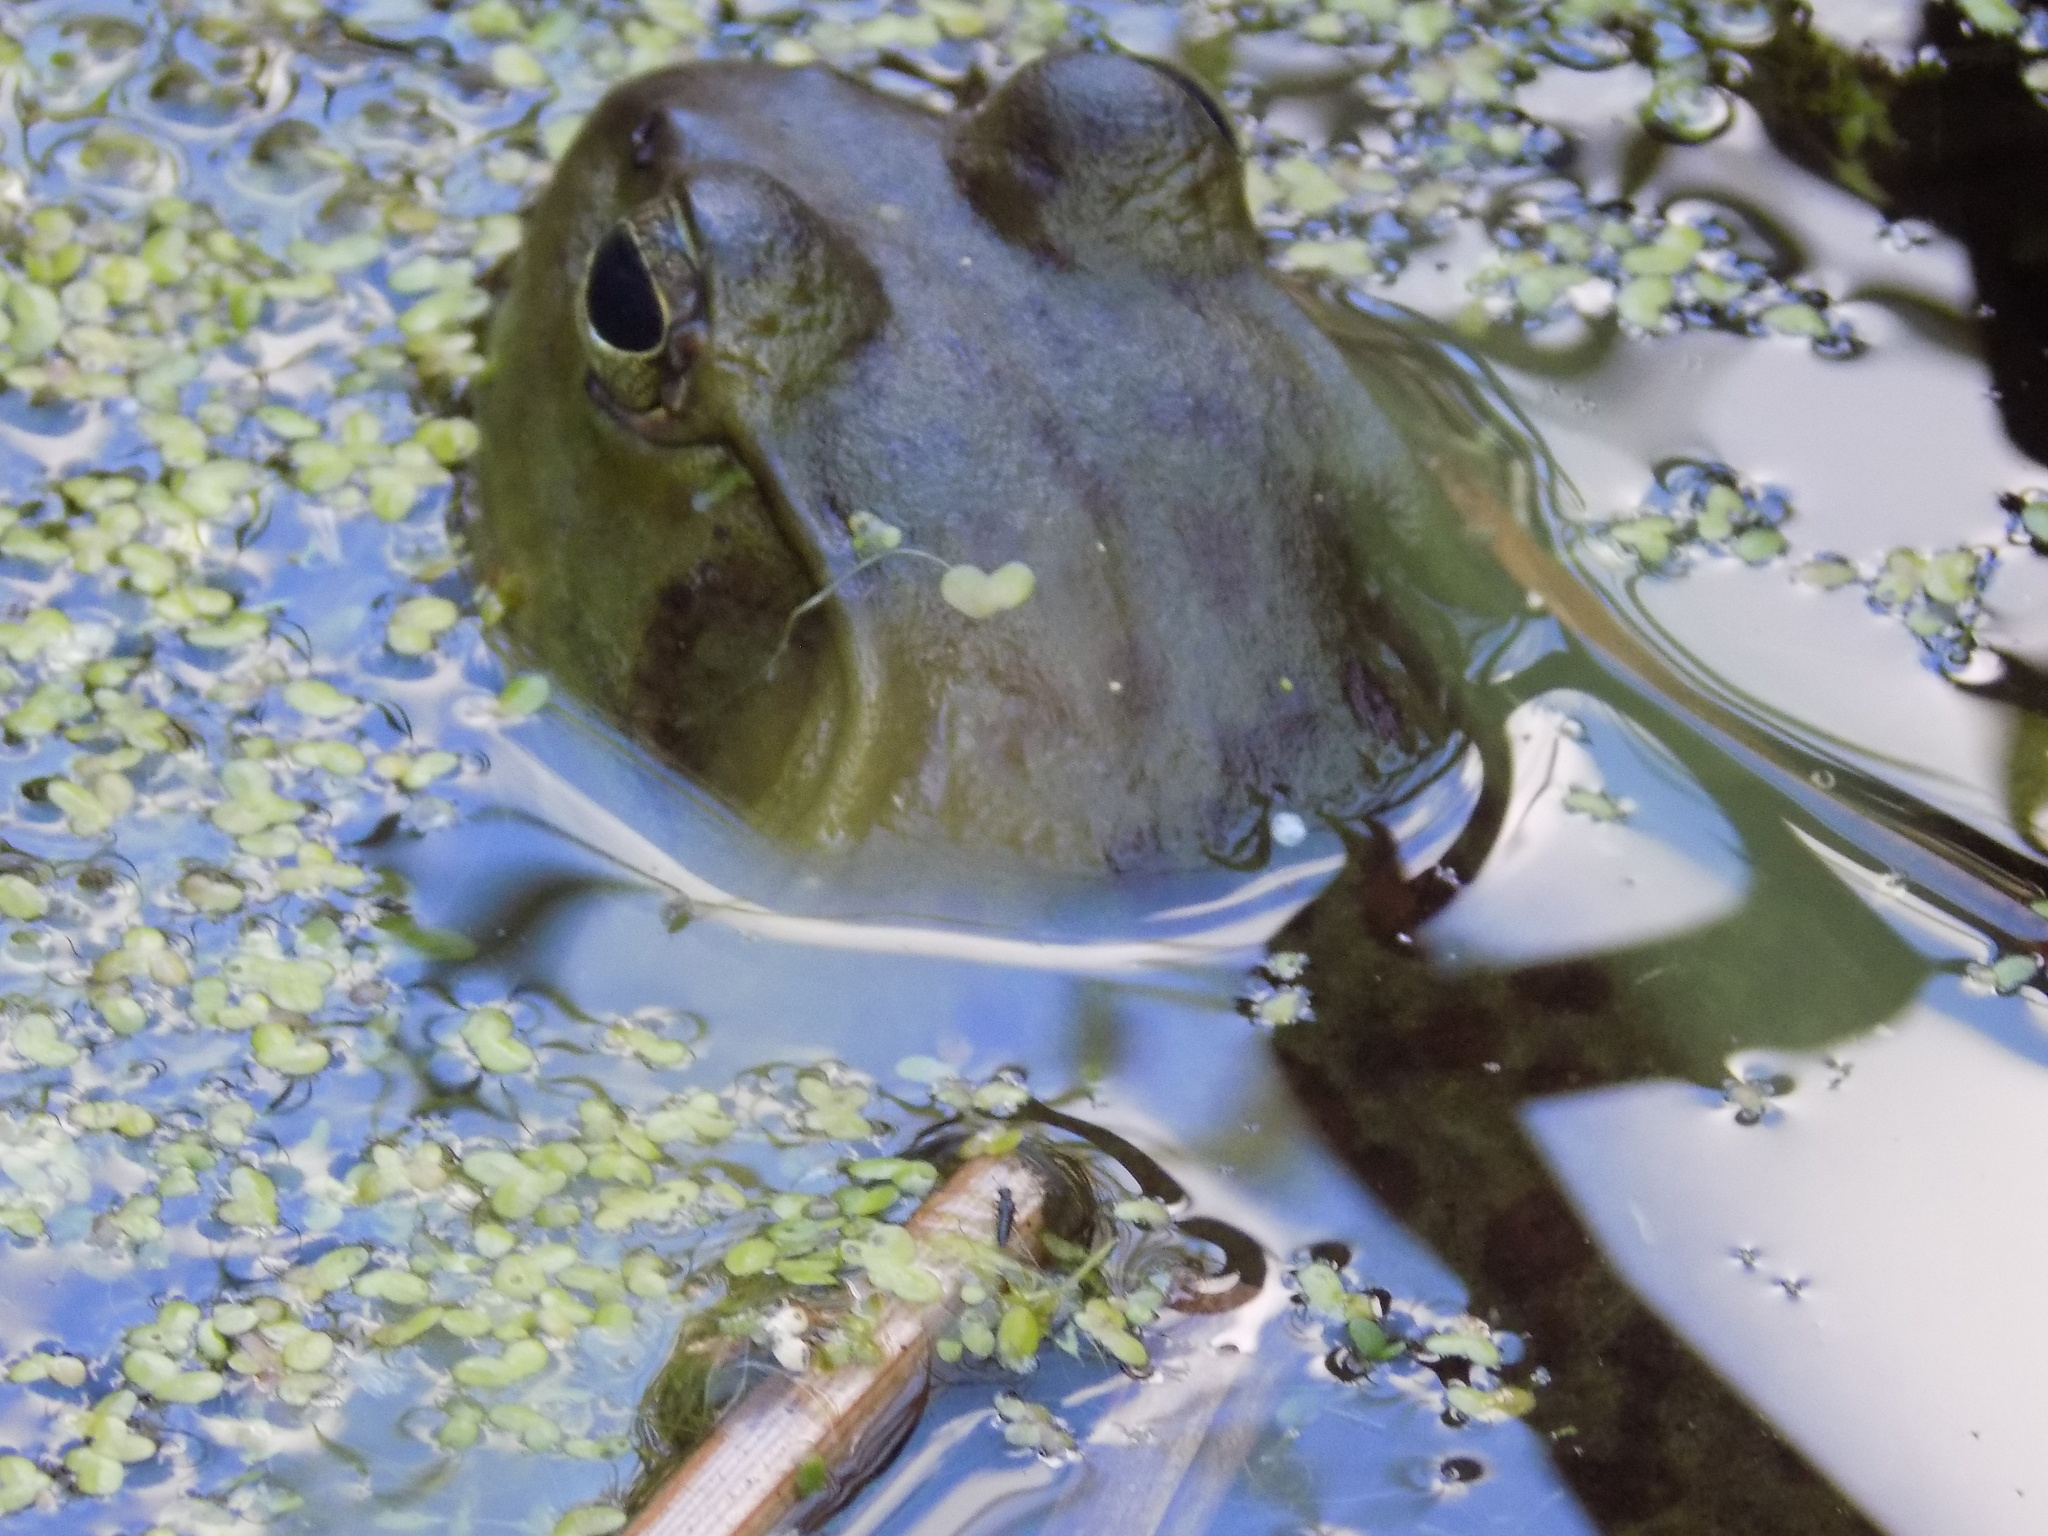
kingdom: Animalia
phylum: Chordata
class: Amphibia
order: Anura
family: Ranidae
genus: Lithobates
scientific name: Lithobates catesbeianus
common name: American bullfrog
